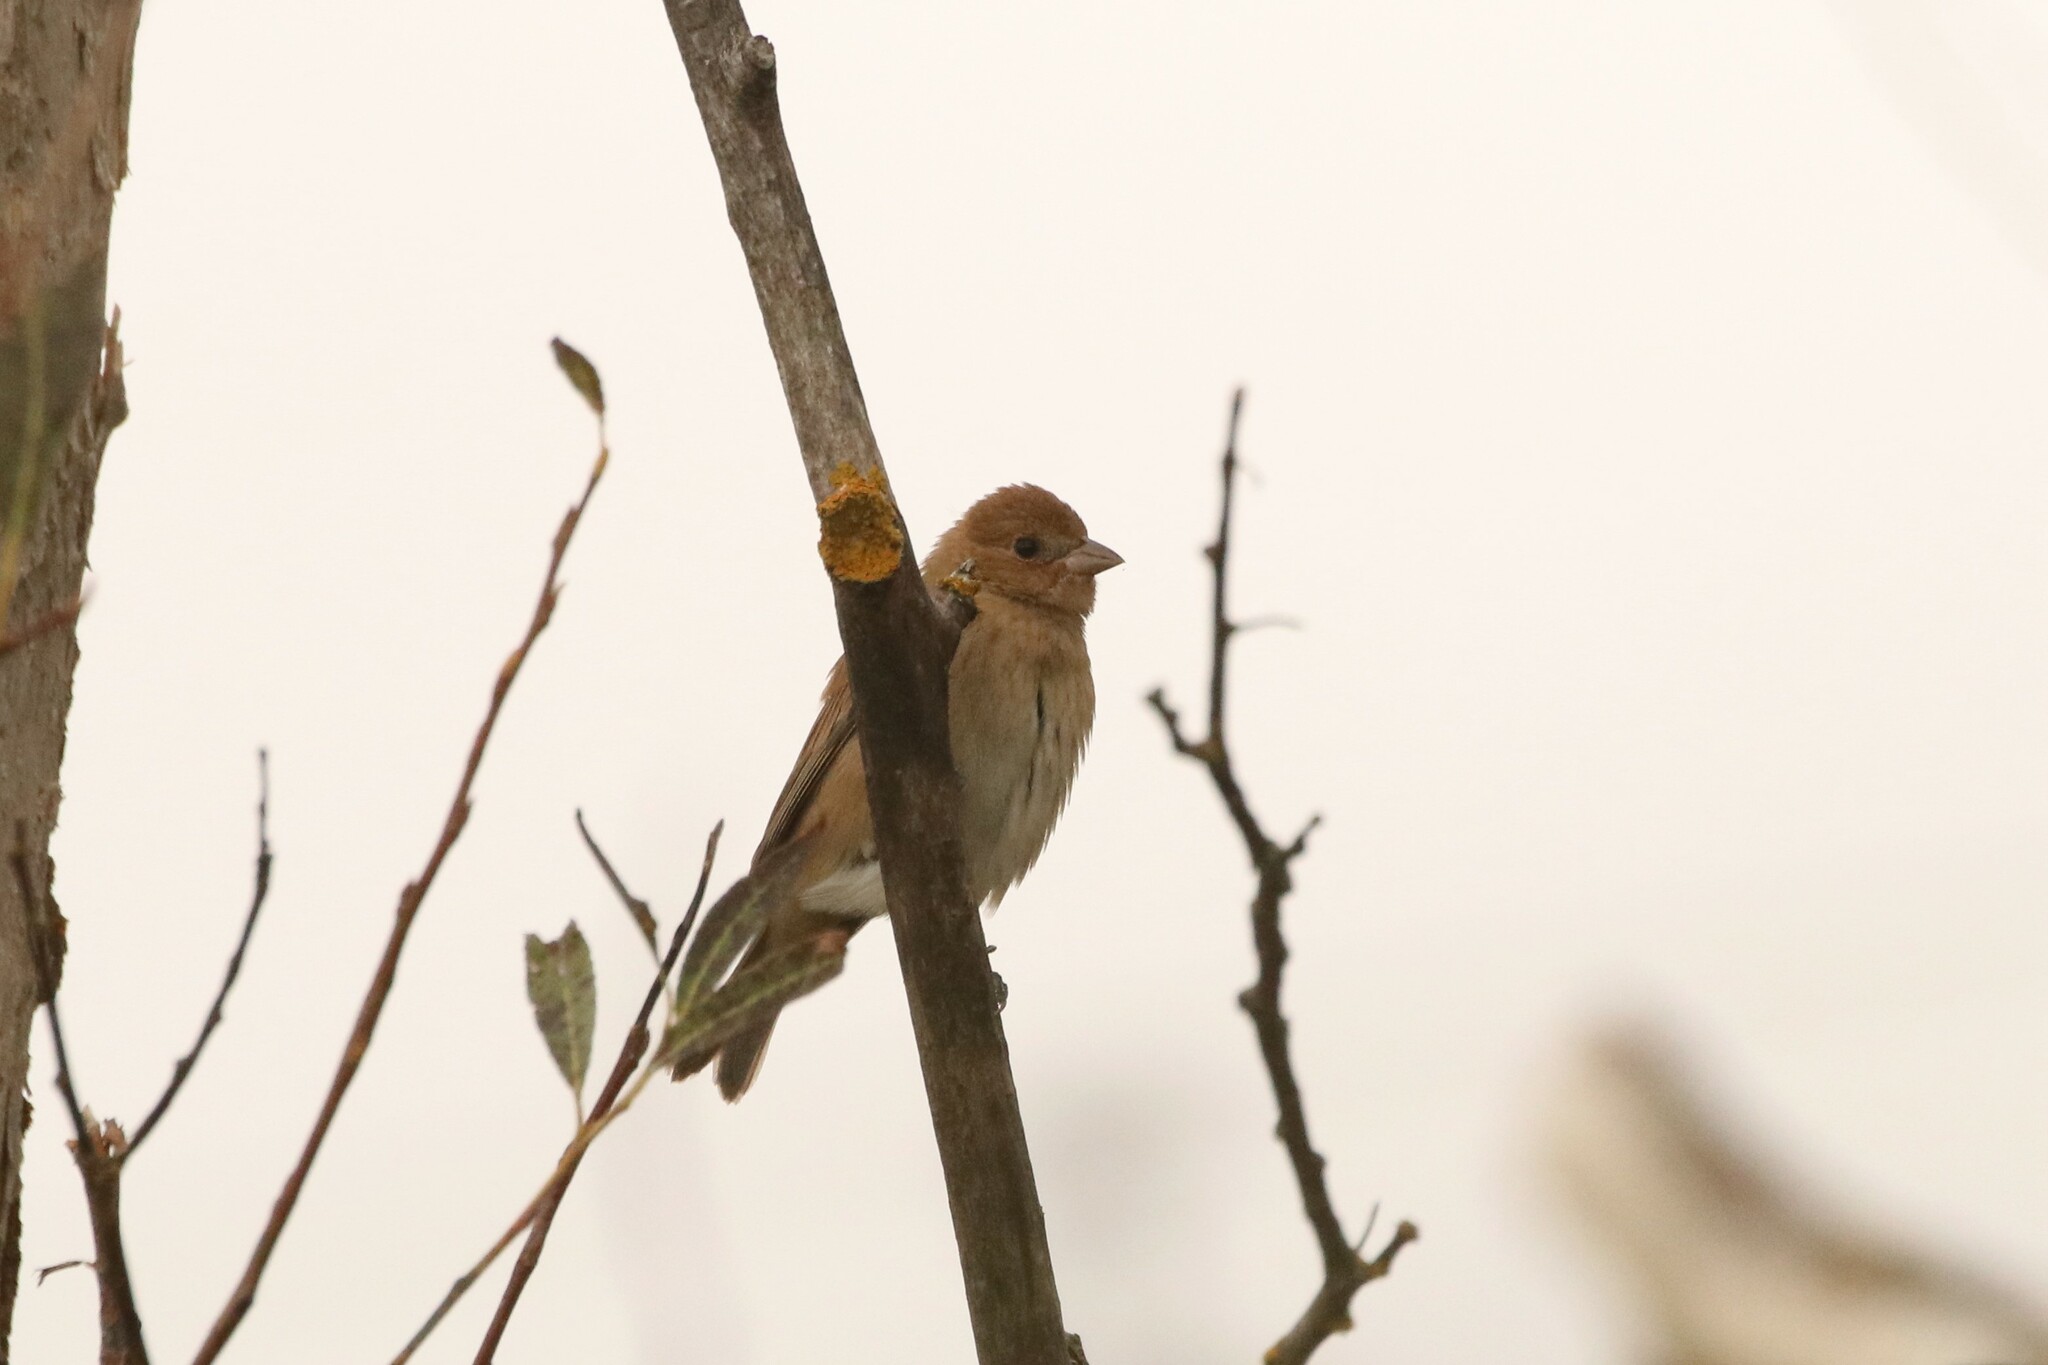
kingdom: Animalia
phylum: Chordata
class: Aves
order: Passeriformes
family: Cardinalidae
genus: Passerina
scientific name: Passerina cyanea
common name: Indigo bunting
